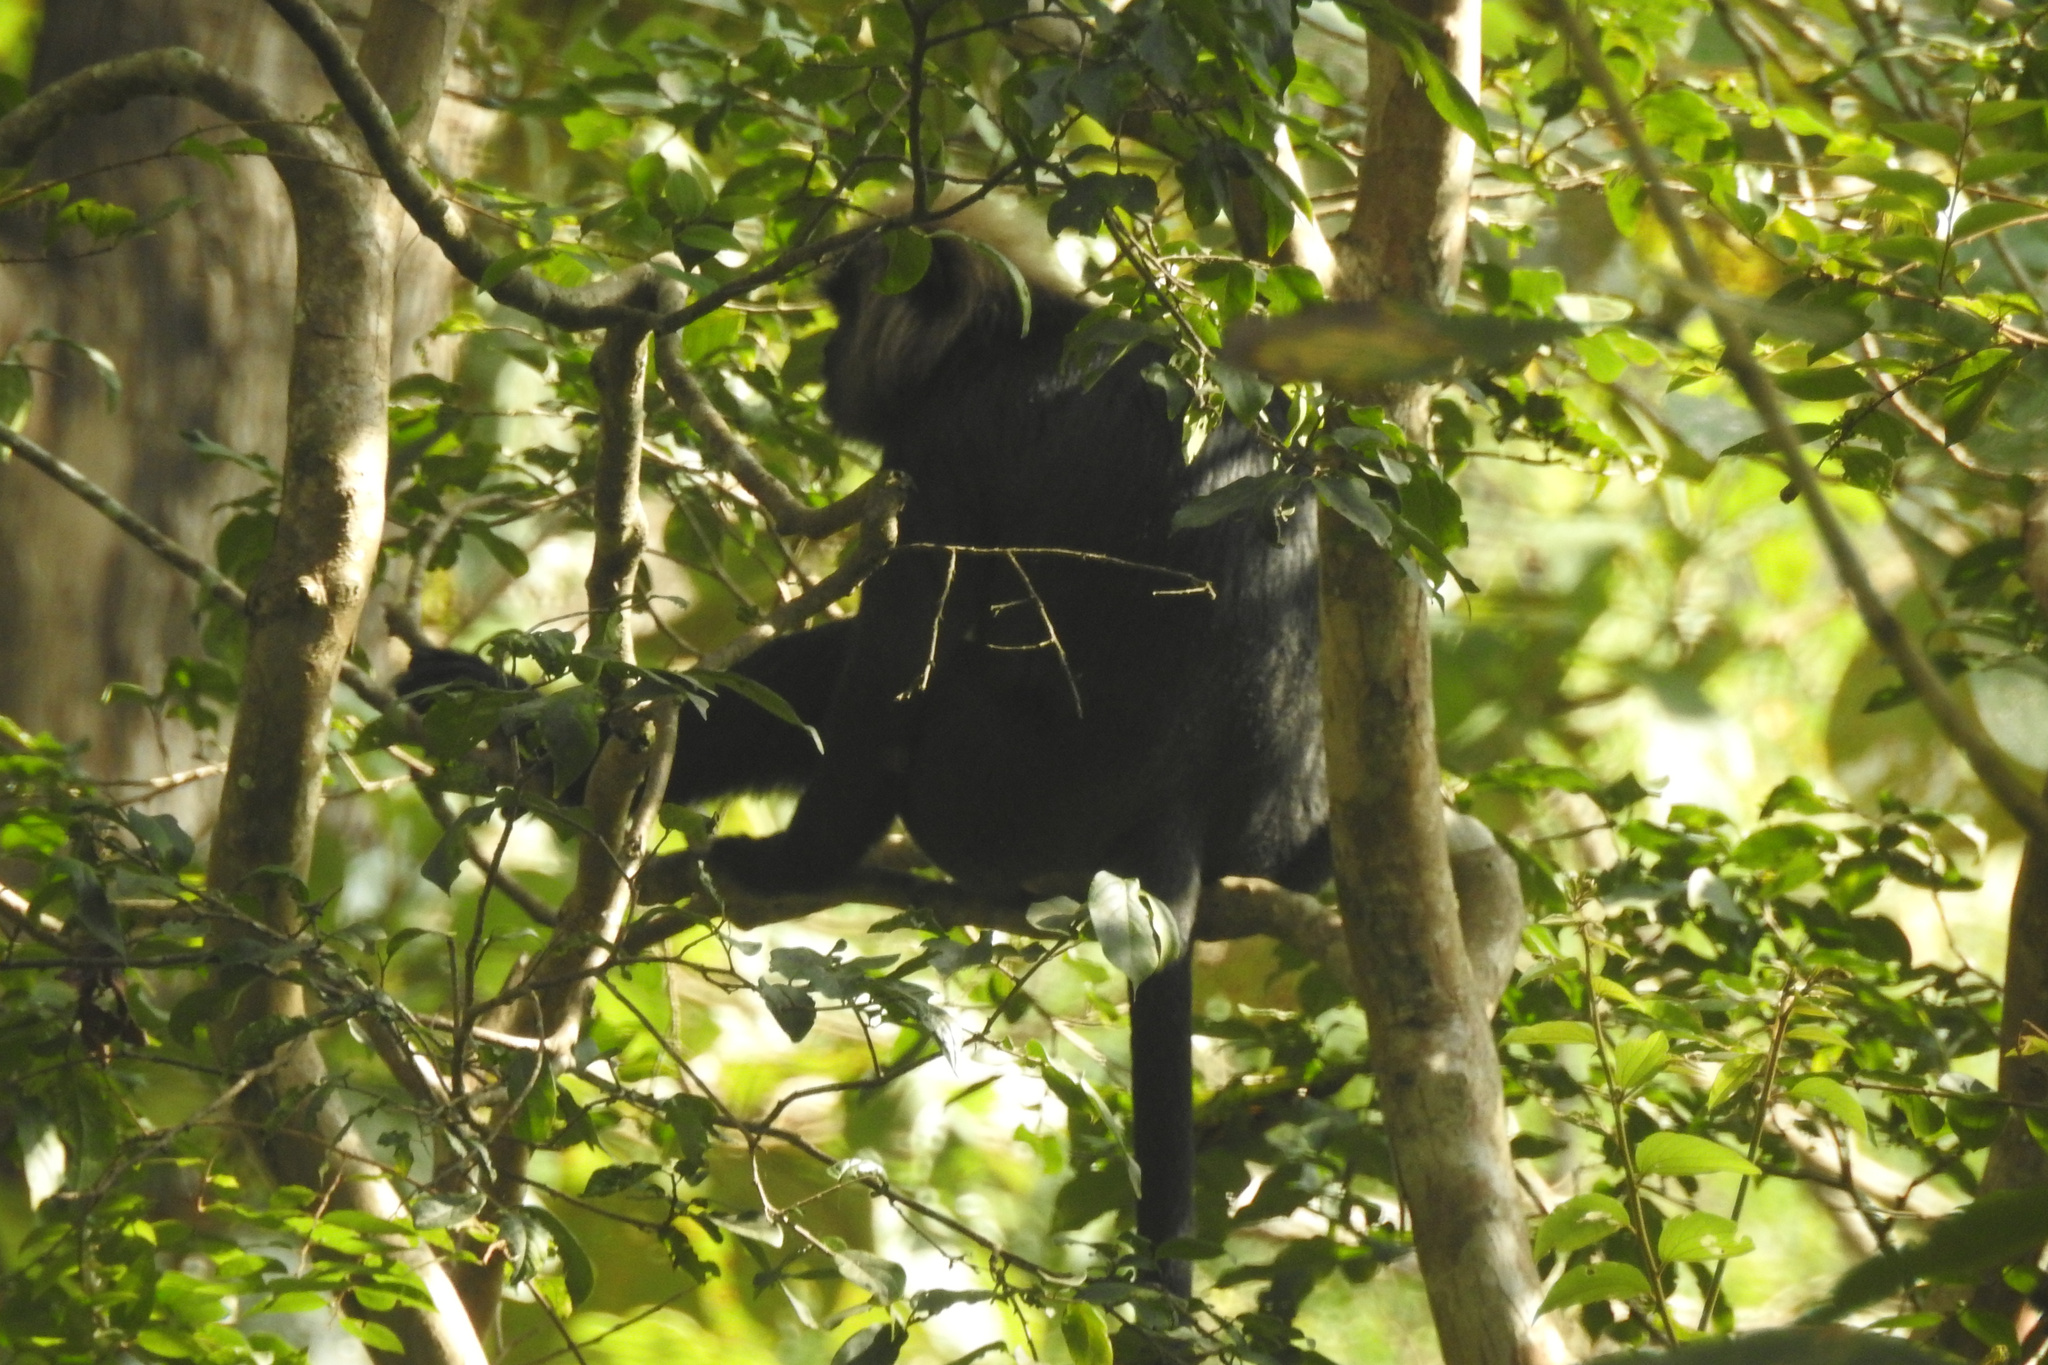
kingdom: Animalia
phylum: Chordata
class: Mammalia
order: Primates
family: Cercopithecidae
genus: Semnopithecus
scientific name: Semnopithecus johnii
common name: Nilgiri langur
